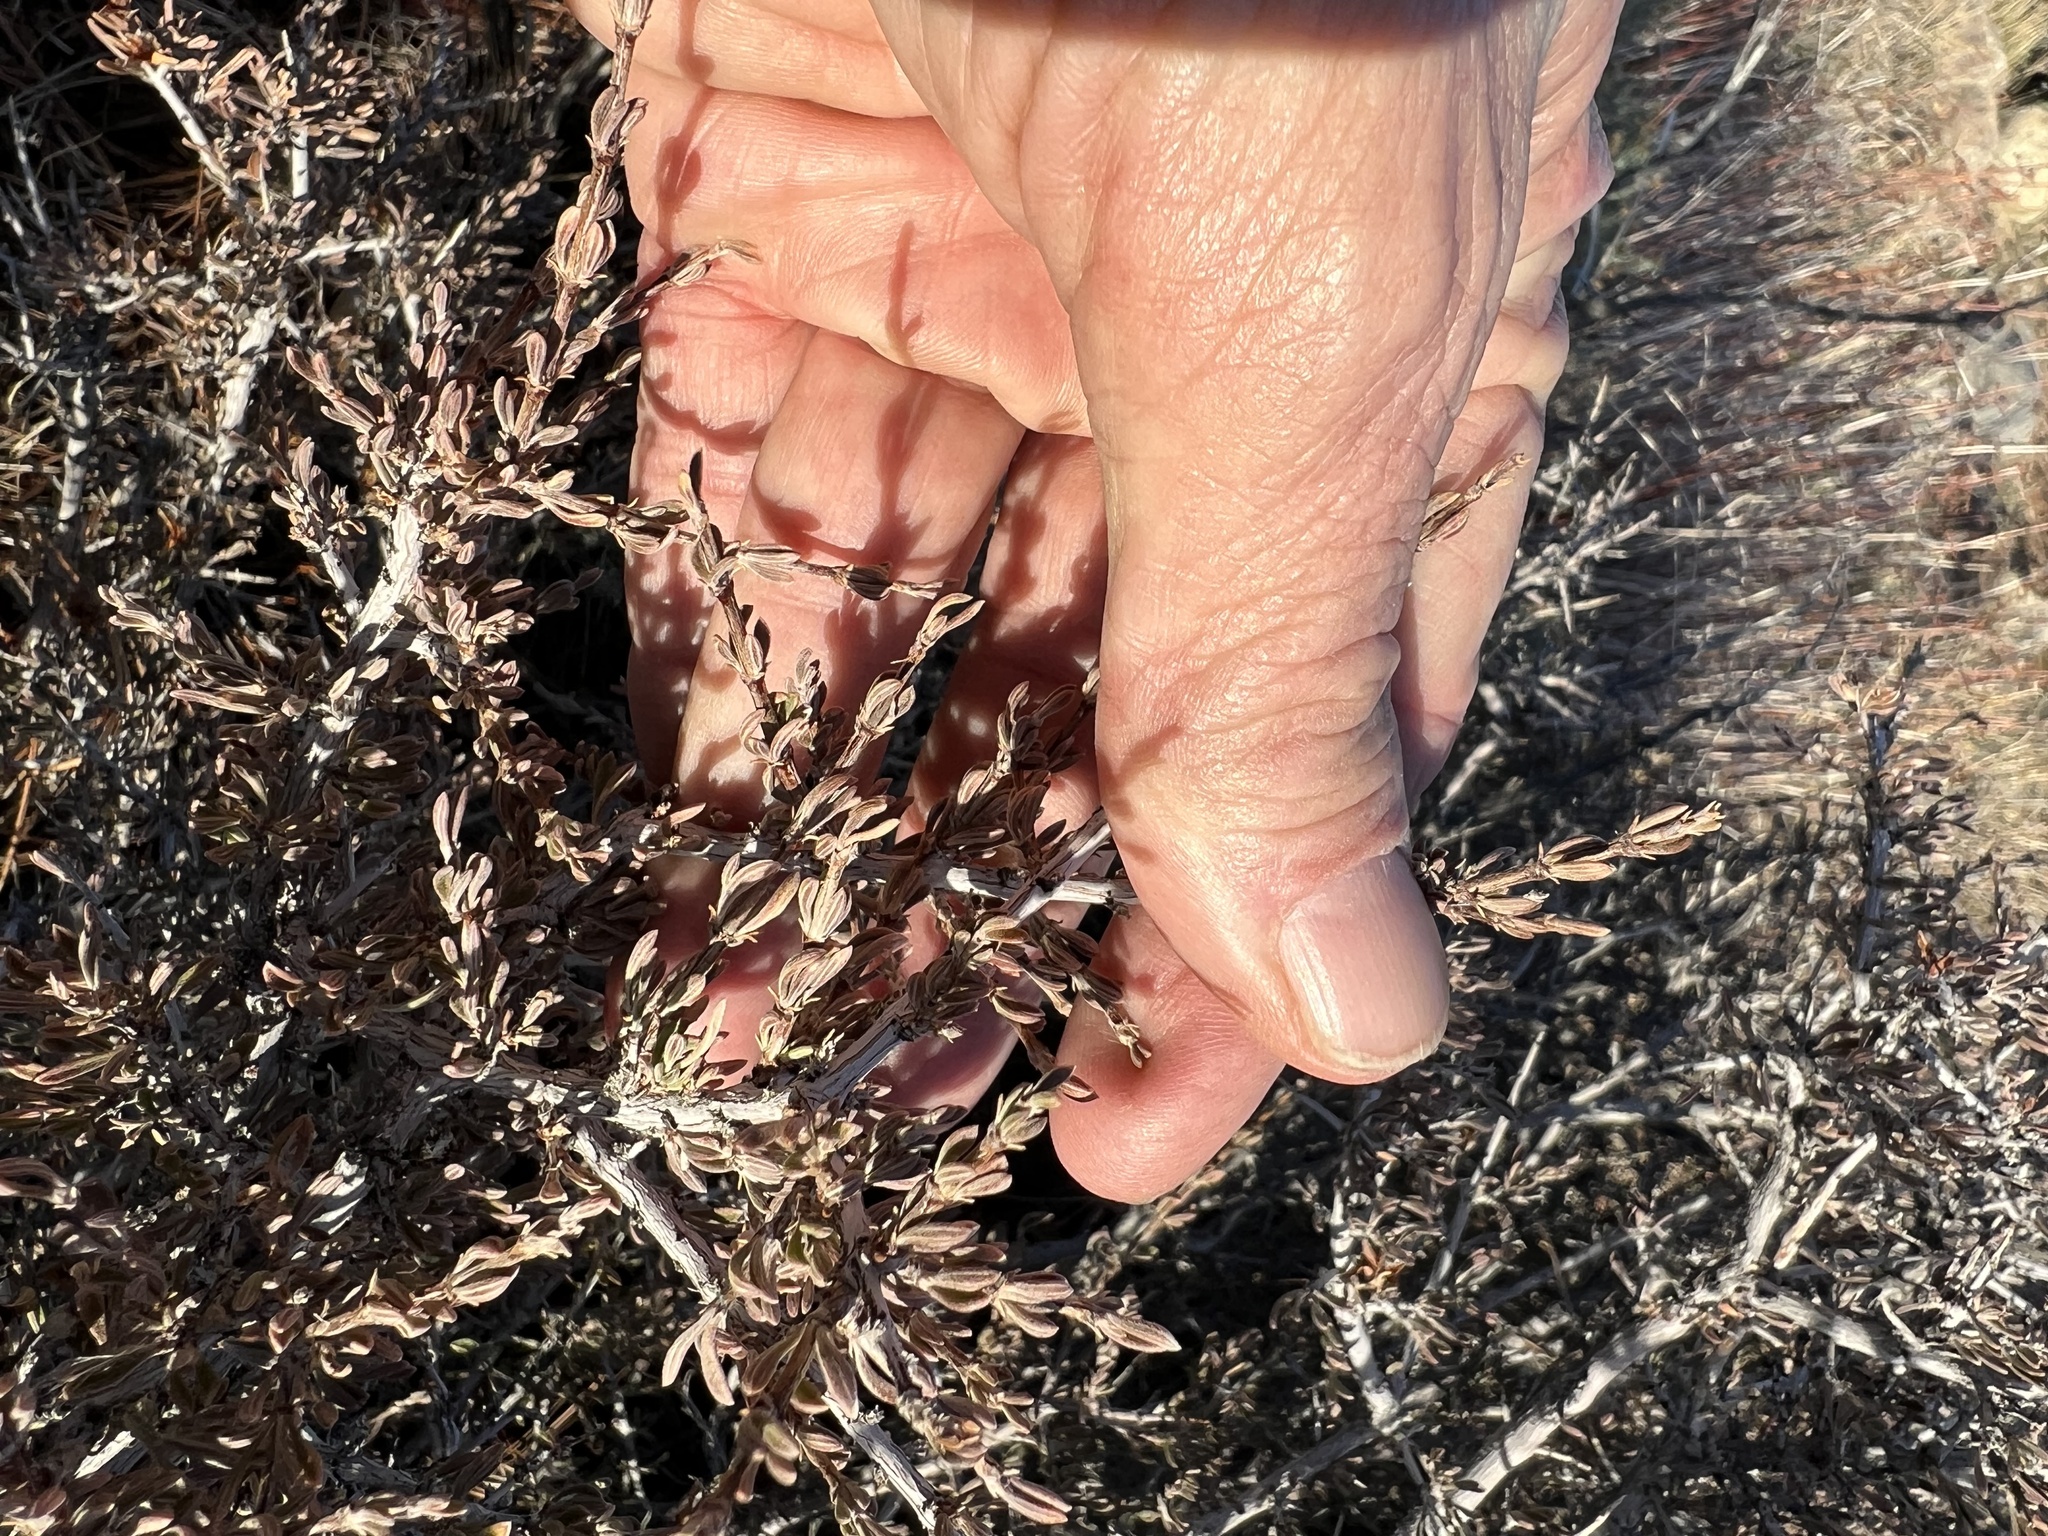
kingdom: Plantae
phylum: Tracheophyta
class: Magnoliopsida
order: Rosales
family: Rosaceae
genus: Coleogyne
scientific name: Coleogyne ramosissima
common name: Blackbrush
